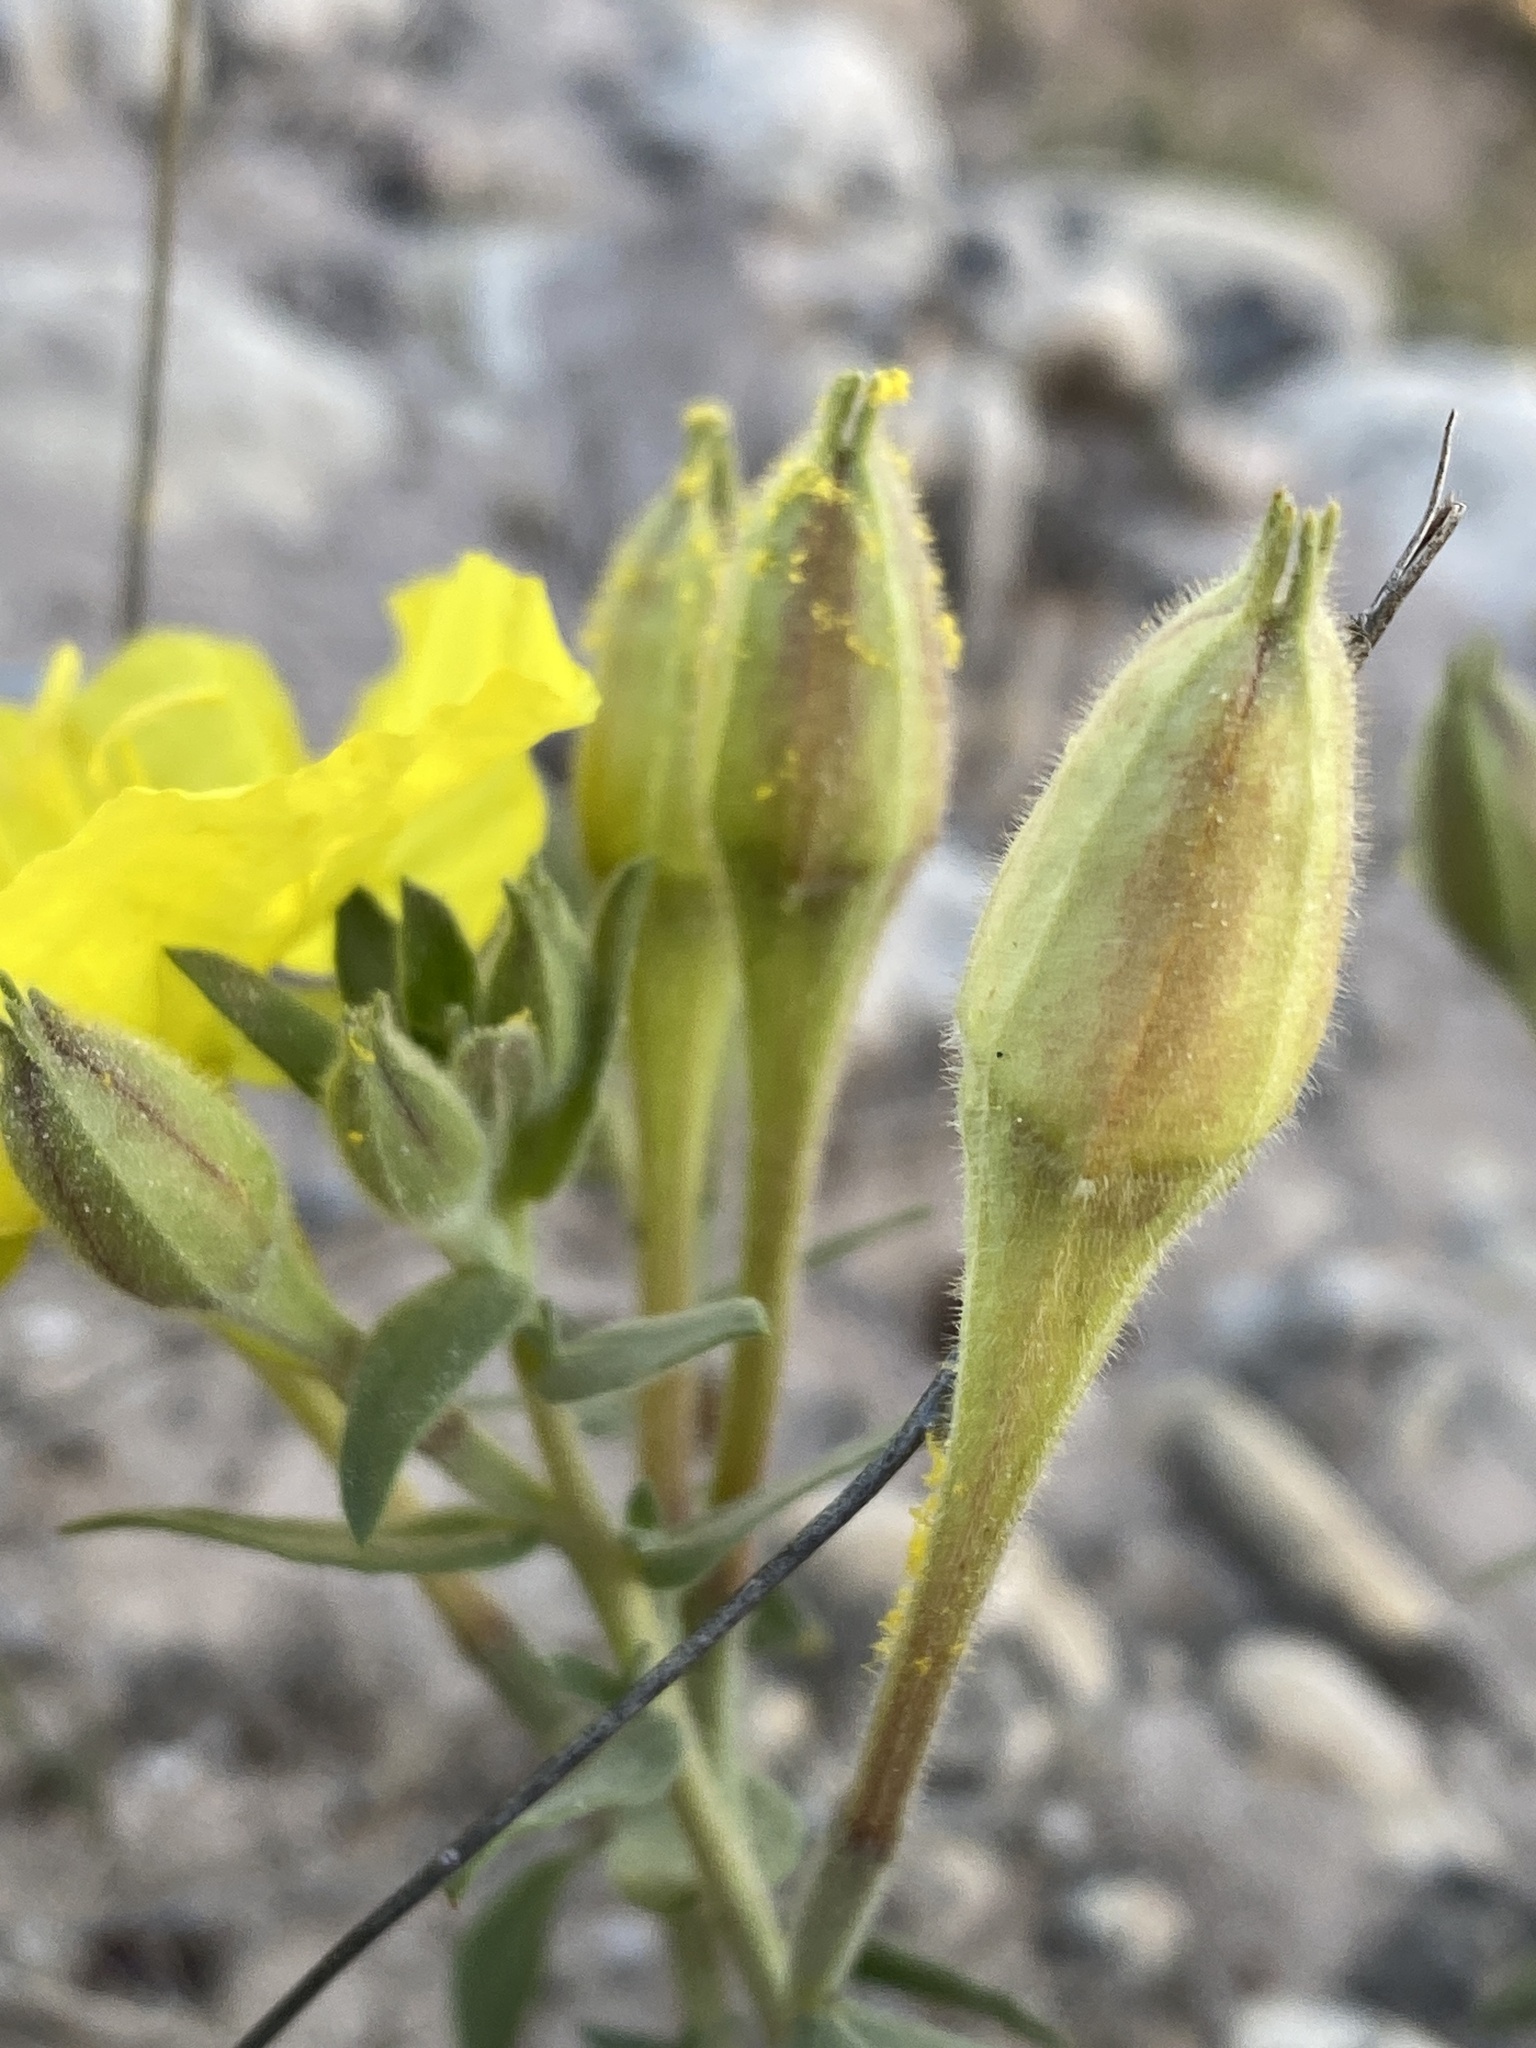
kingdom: Plantae
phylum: Tracheophyta
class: Magnoliopsida
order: Myrtales
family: Onagraceae
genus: Oenothera
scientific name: Oenothera hartwegii
